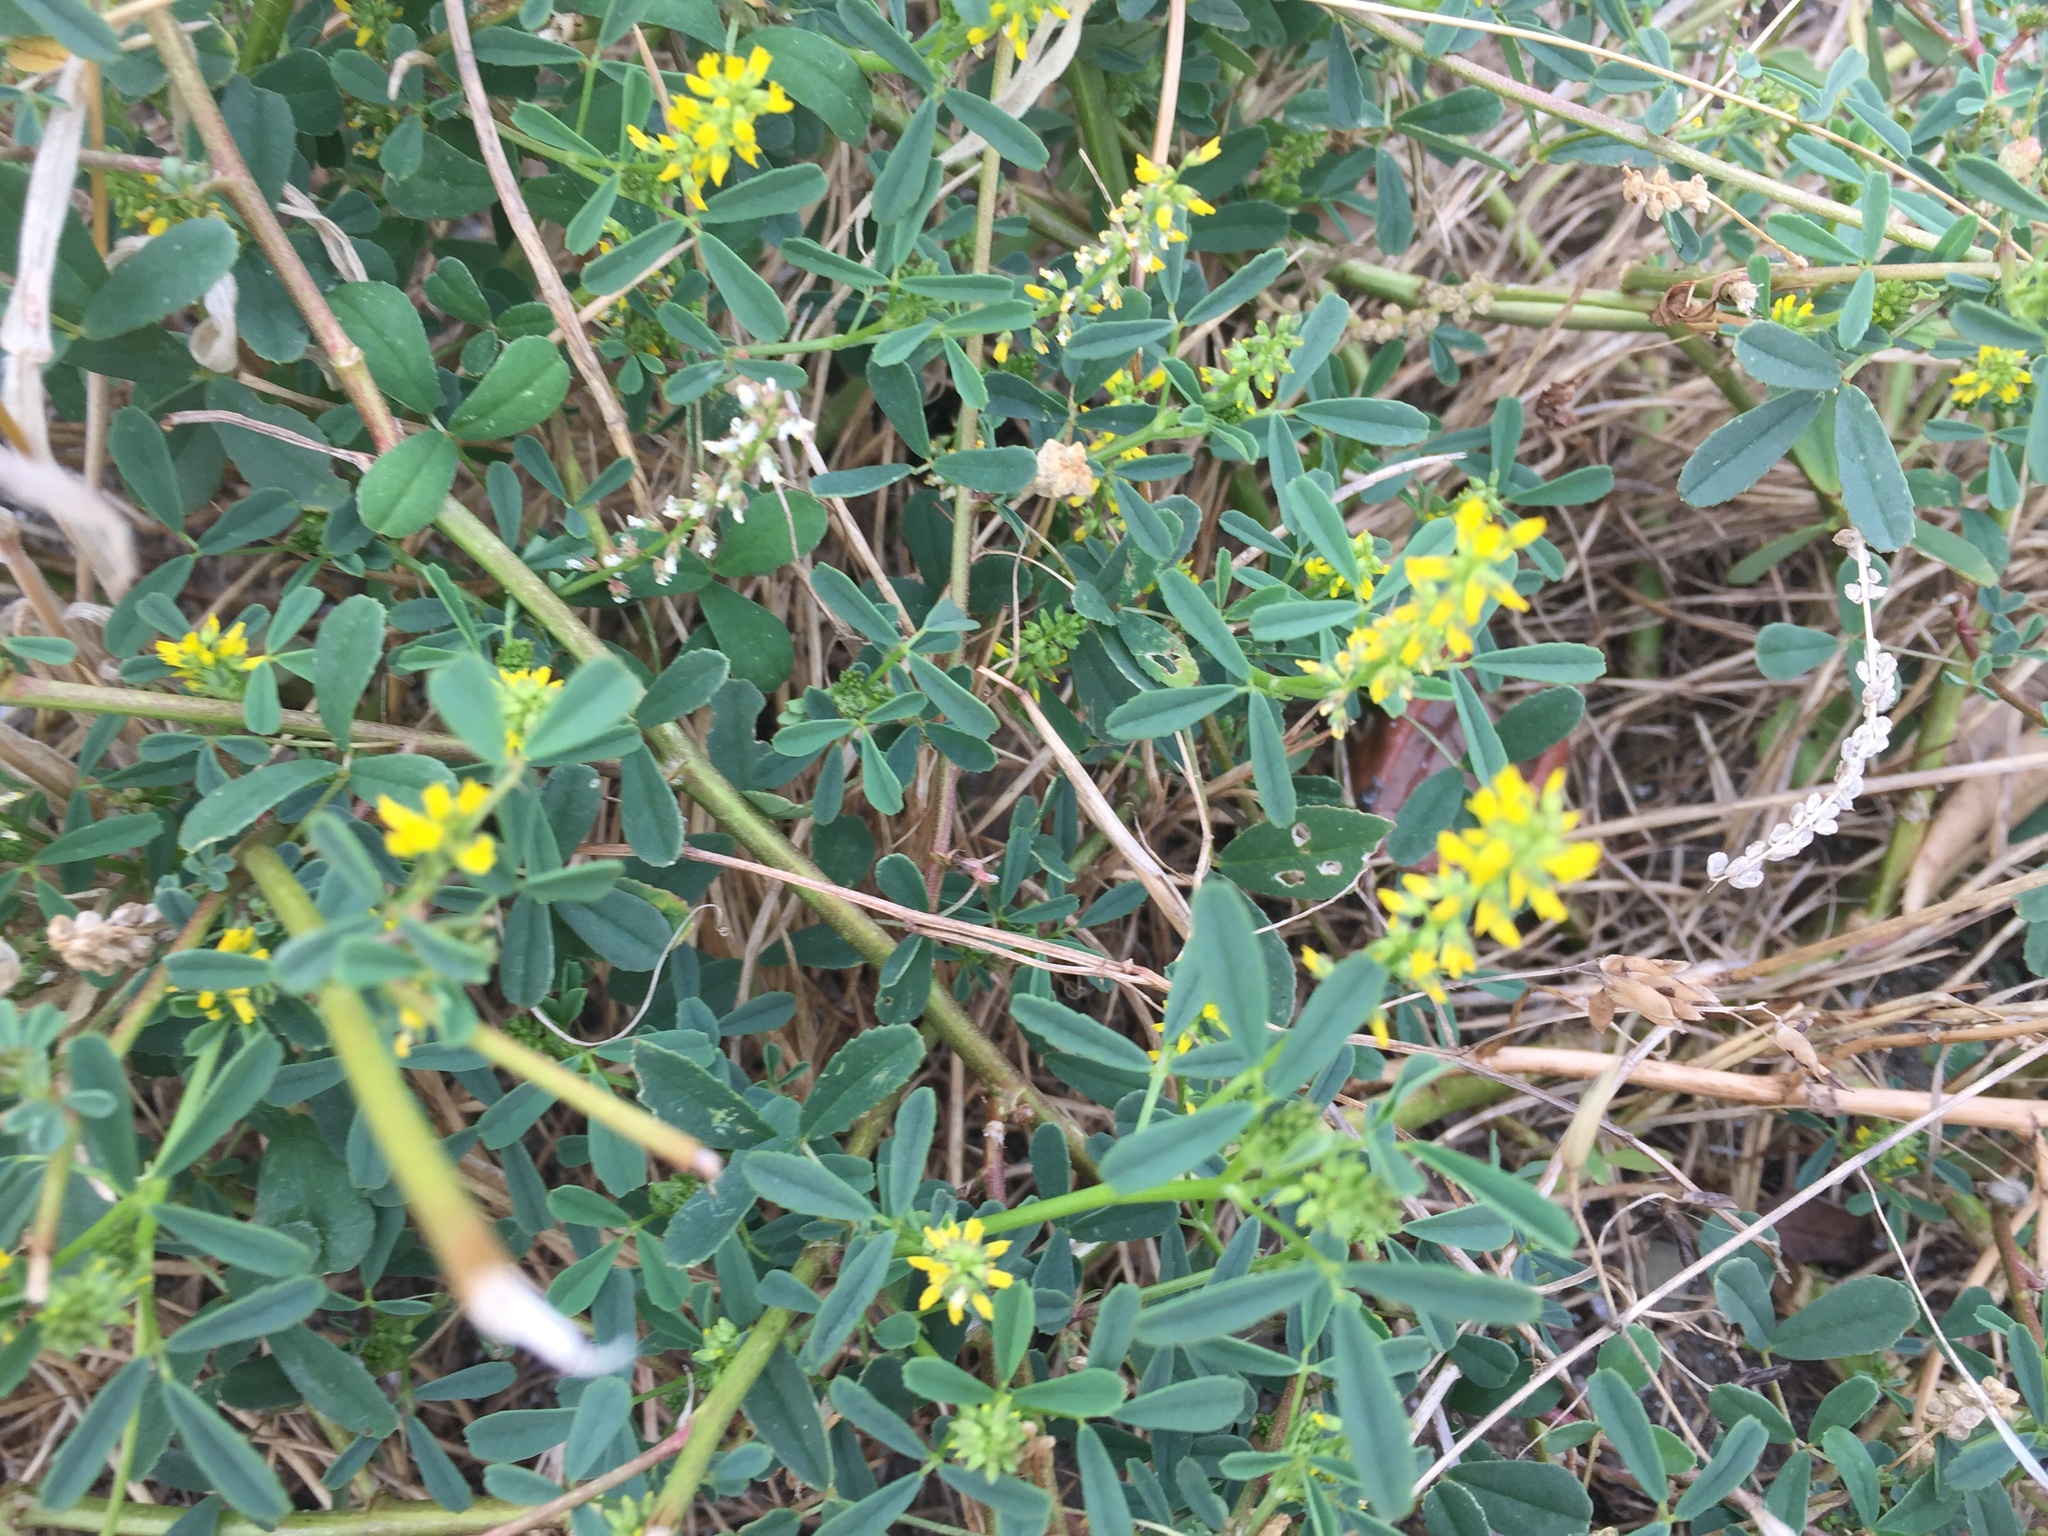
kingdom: Plantae
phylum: Tracheophyta
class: Magnoliopsida
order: Fabales
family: Fabaceae
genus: Melilotus
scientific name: Melilotus indicus
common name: Small melilot
